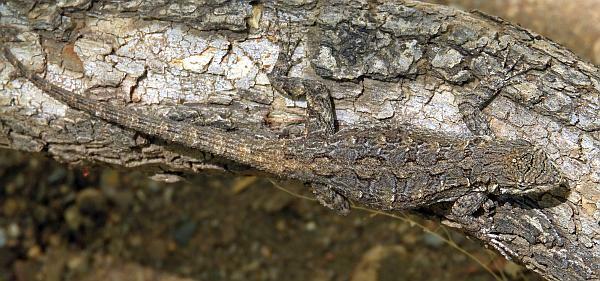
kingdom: Animalia
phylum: Chordata
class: Squamata
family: Phrynosomatidae
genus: Urosaurus
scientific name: Urosaurus ornatus
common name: Ornate tree lizard
